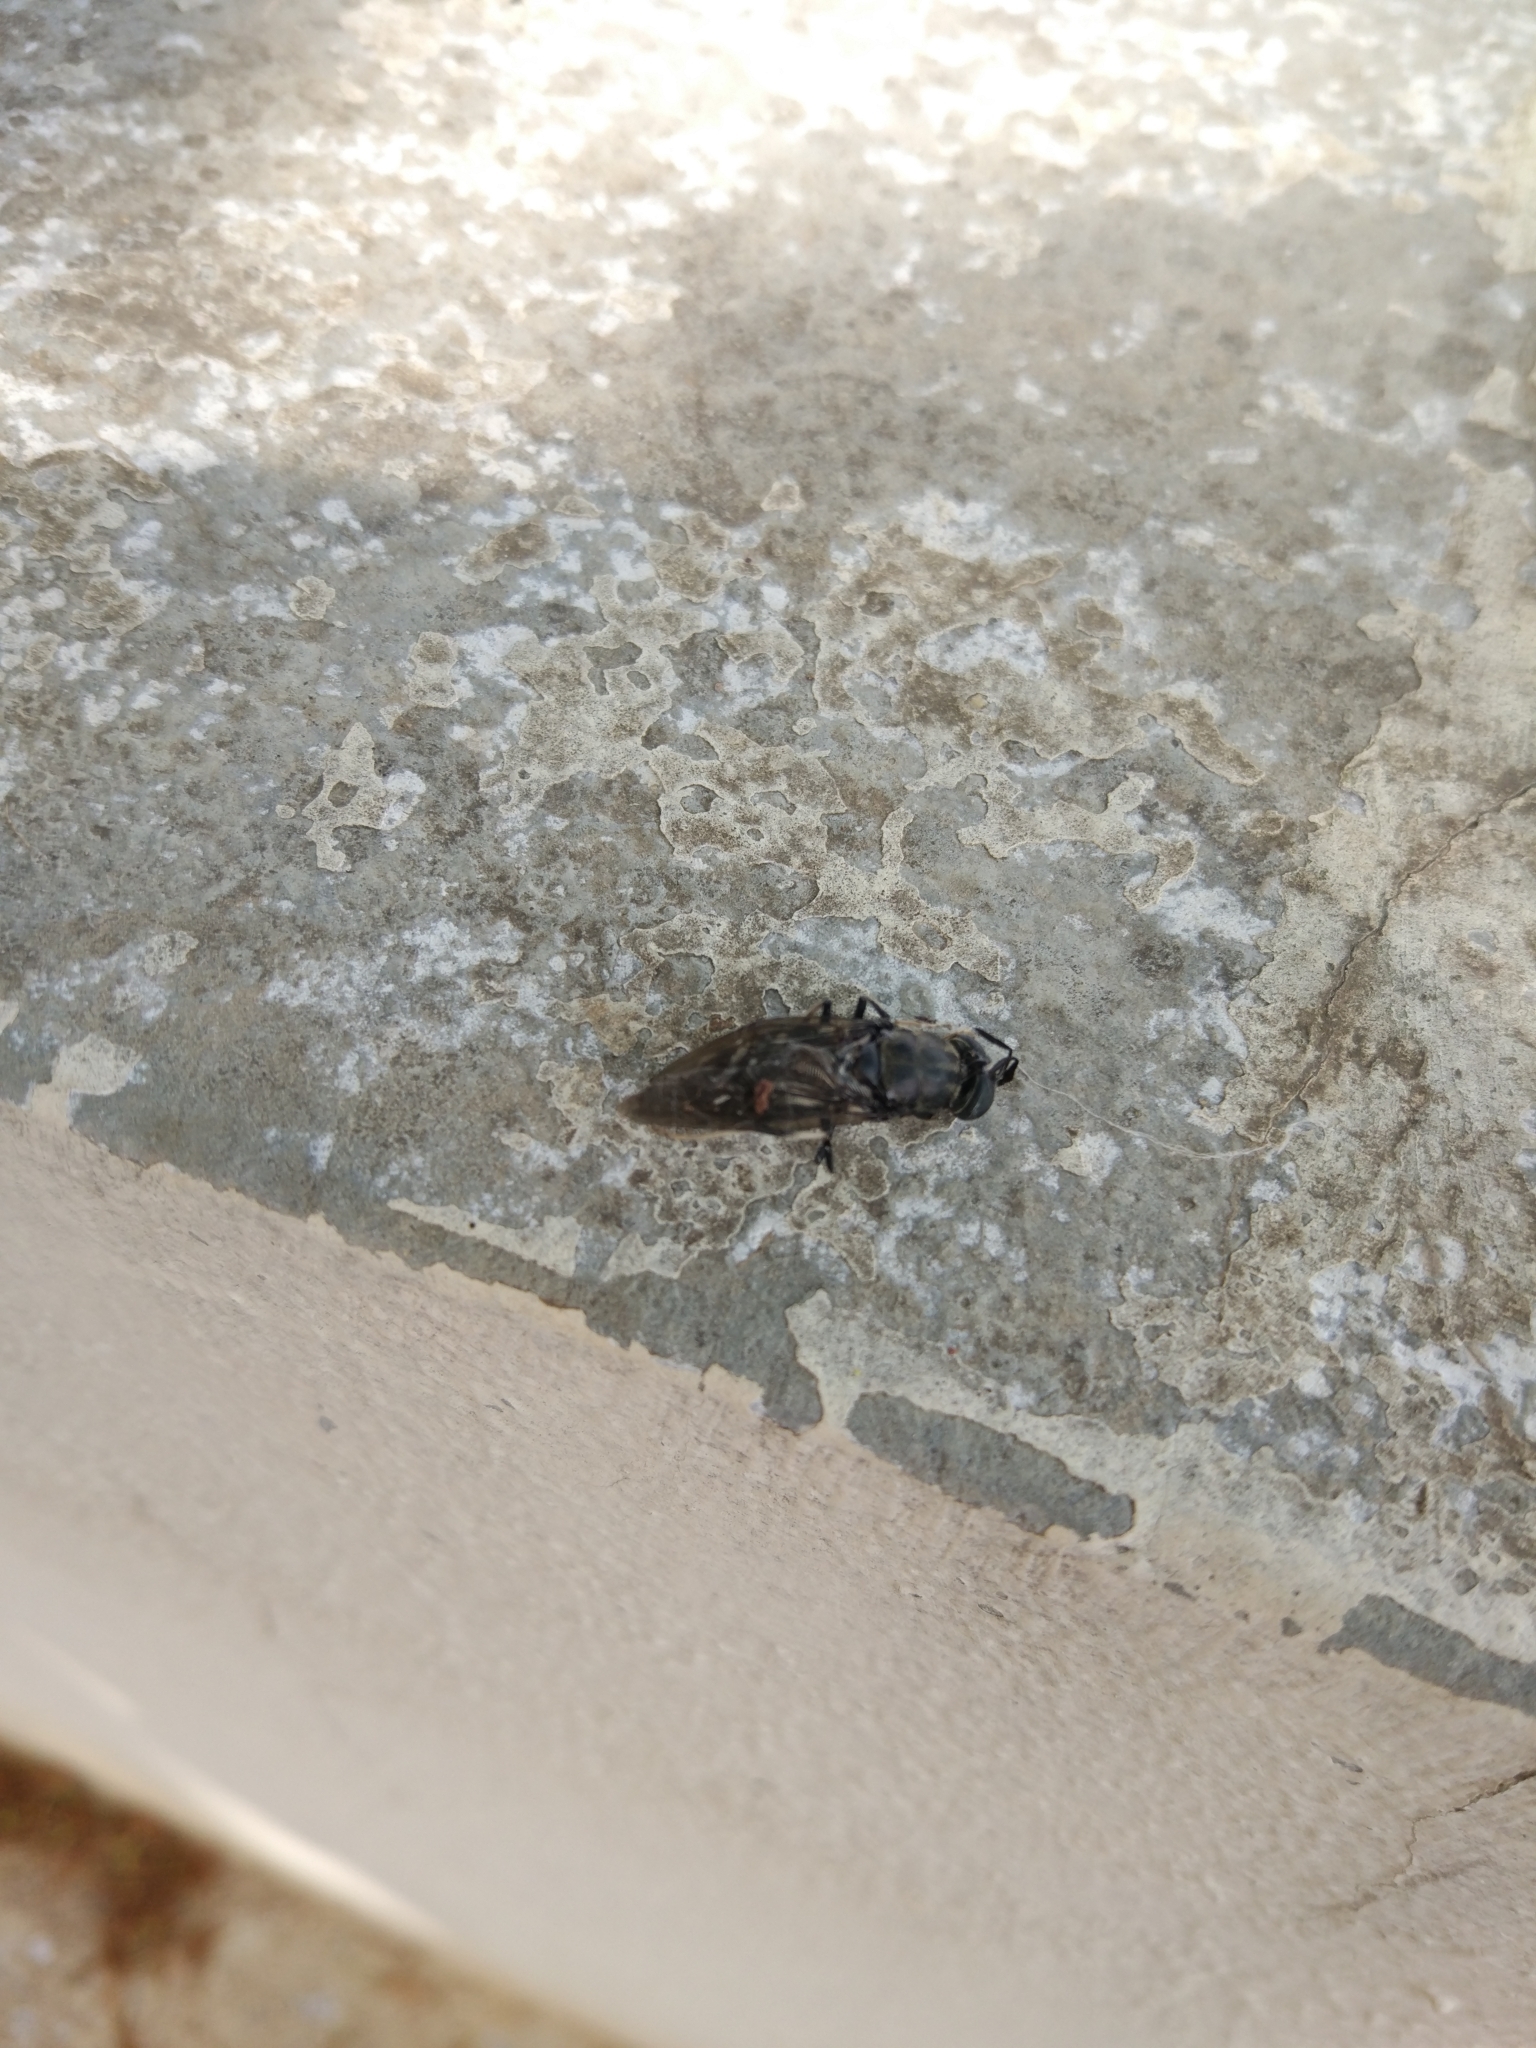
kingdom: Animalia
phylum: Arthropoda
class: Insecta
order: Diptera
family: Stratiomyidae
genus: Hermetia
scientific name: Hermetia illucens
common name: Black soldier fly
